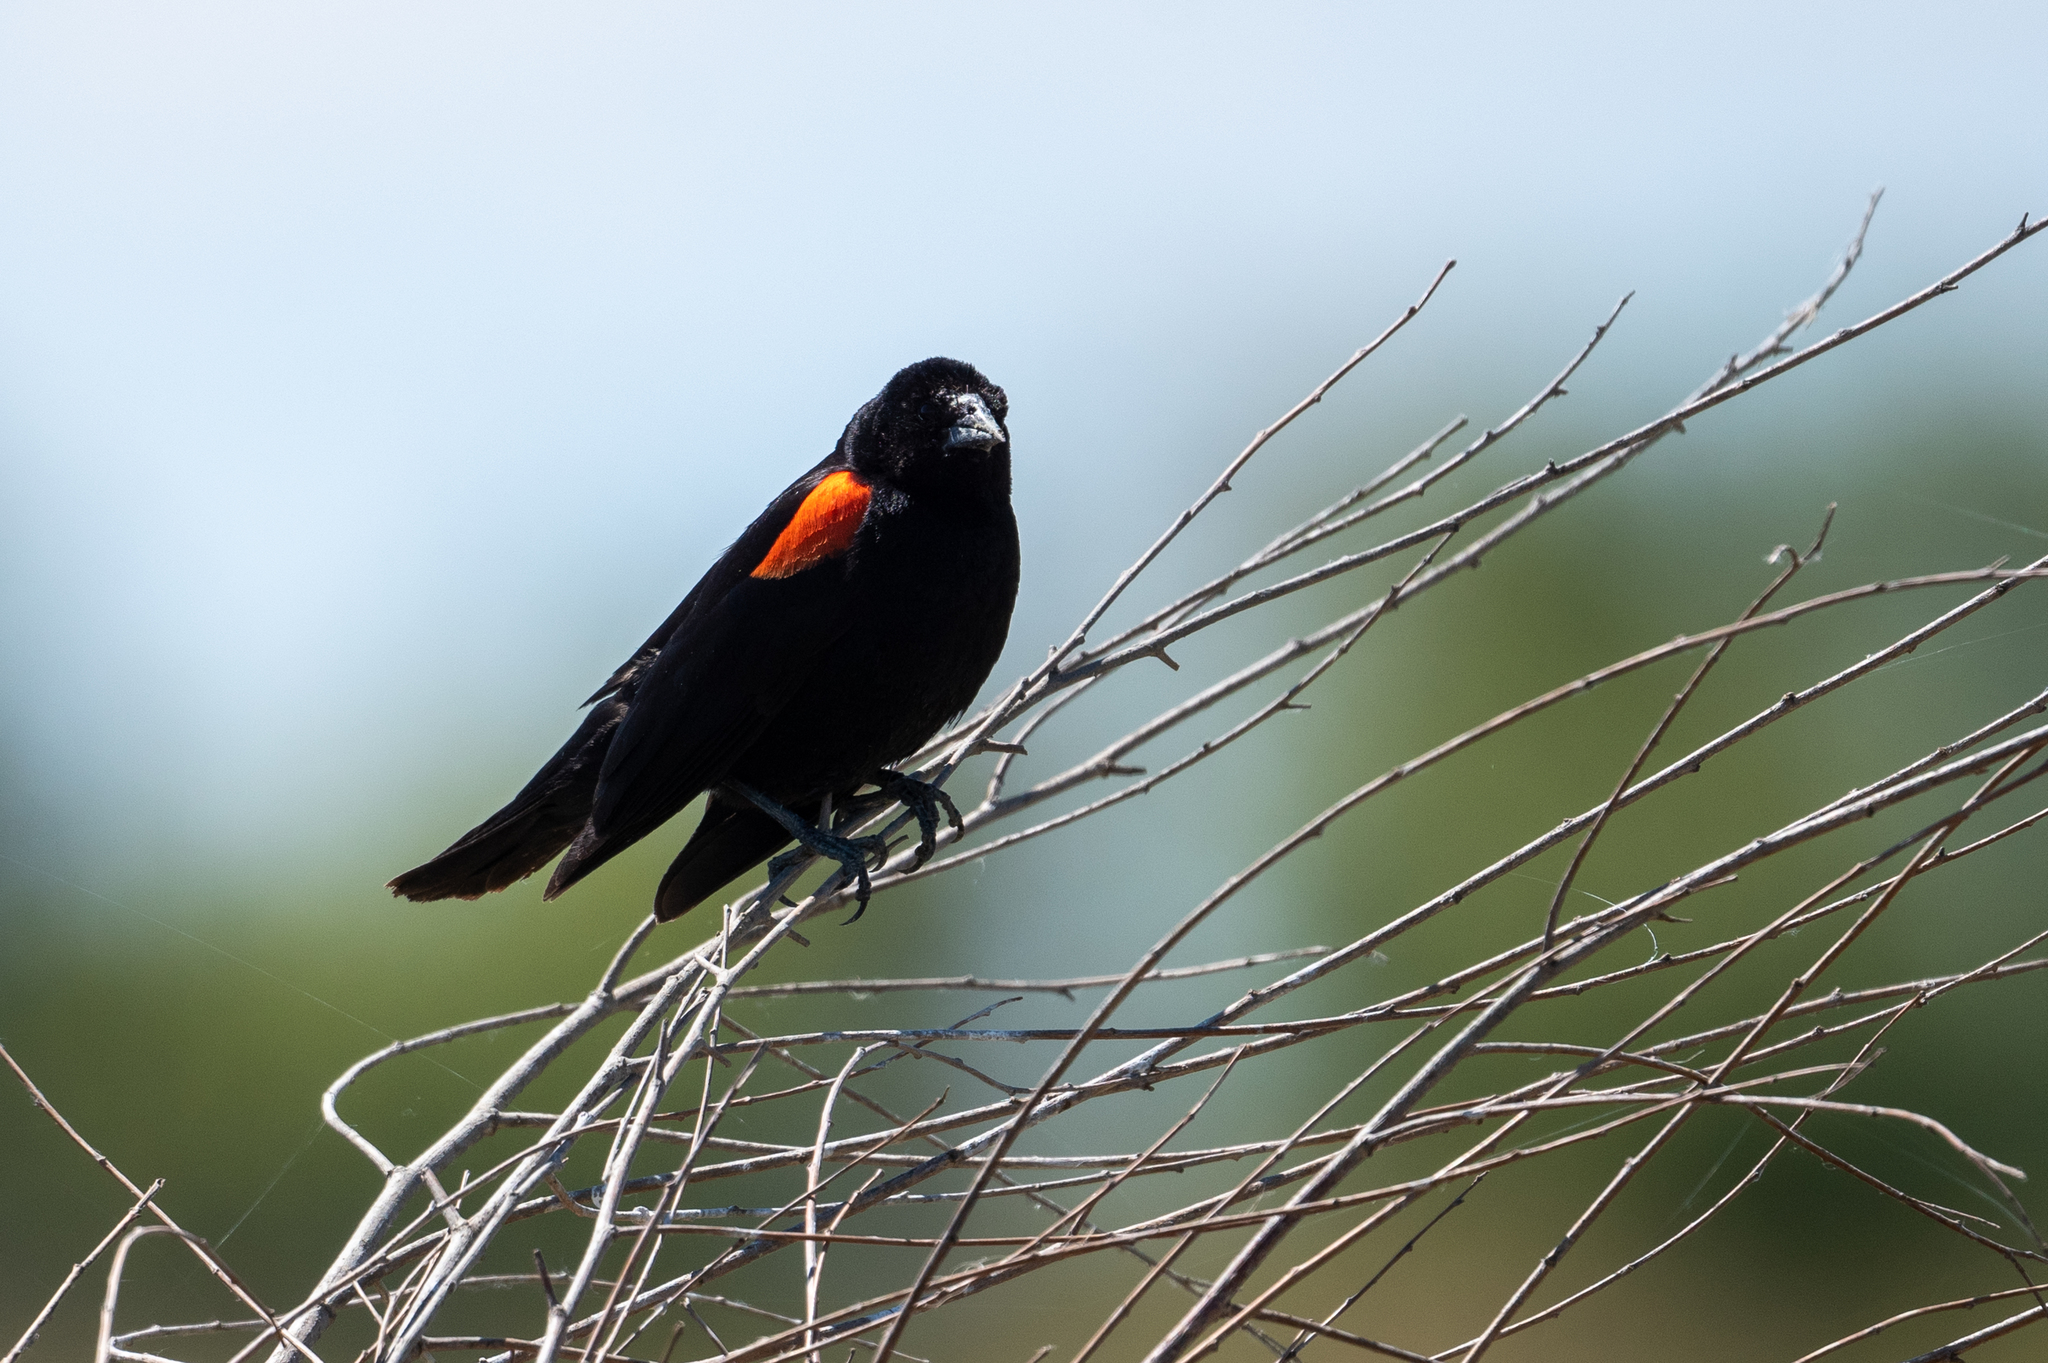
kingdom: Animalia
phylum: Chordata
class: Aves
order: Passeriformes
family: Icteridae
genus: Agelaius
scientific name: Agelaius phoeniceus
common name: Red-winged blackbird
